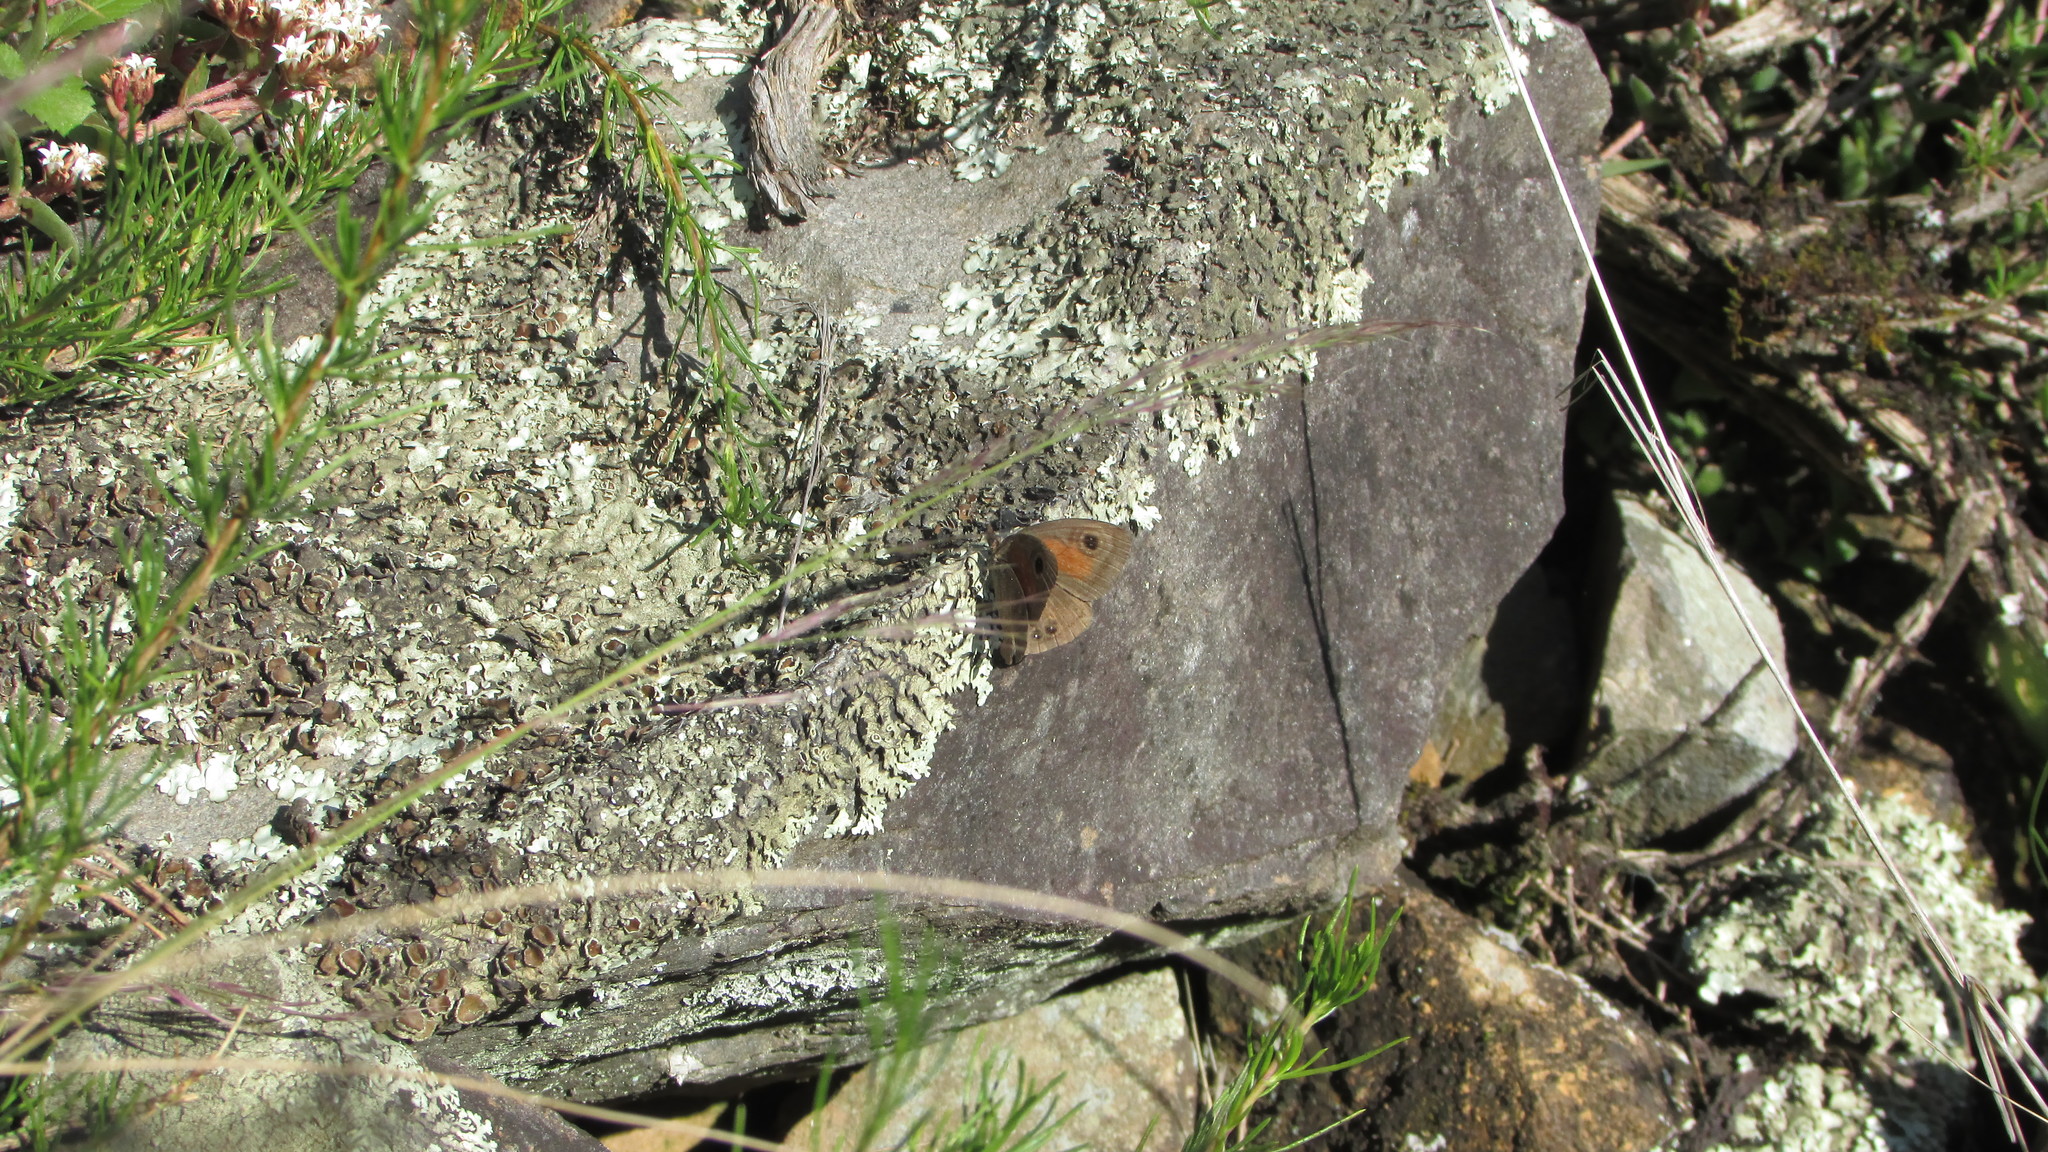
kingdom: Animalia
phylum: Arthropoda
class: Insecta
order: Lepidoptera
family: Nymphalidae
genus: Cassionympha
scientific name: Cassionympha cassius
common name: Rainforest brown
